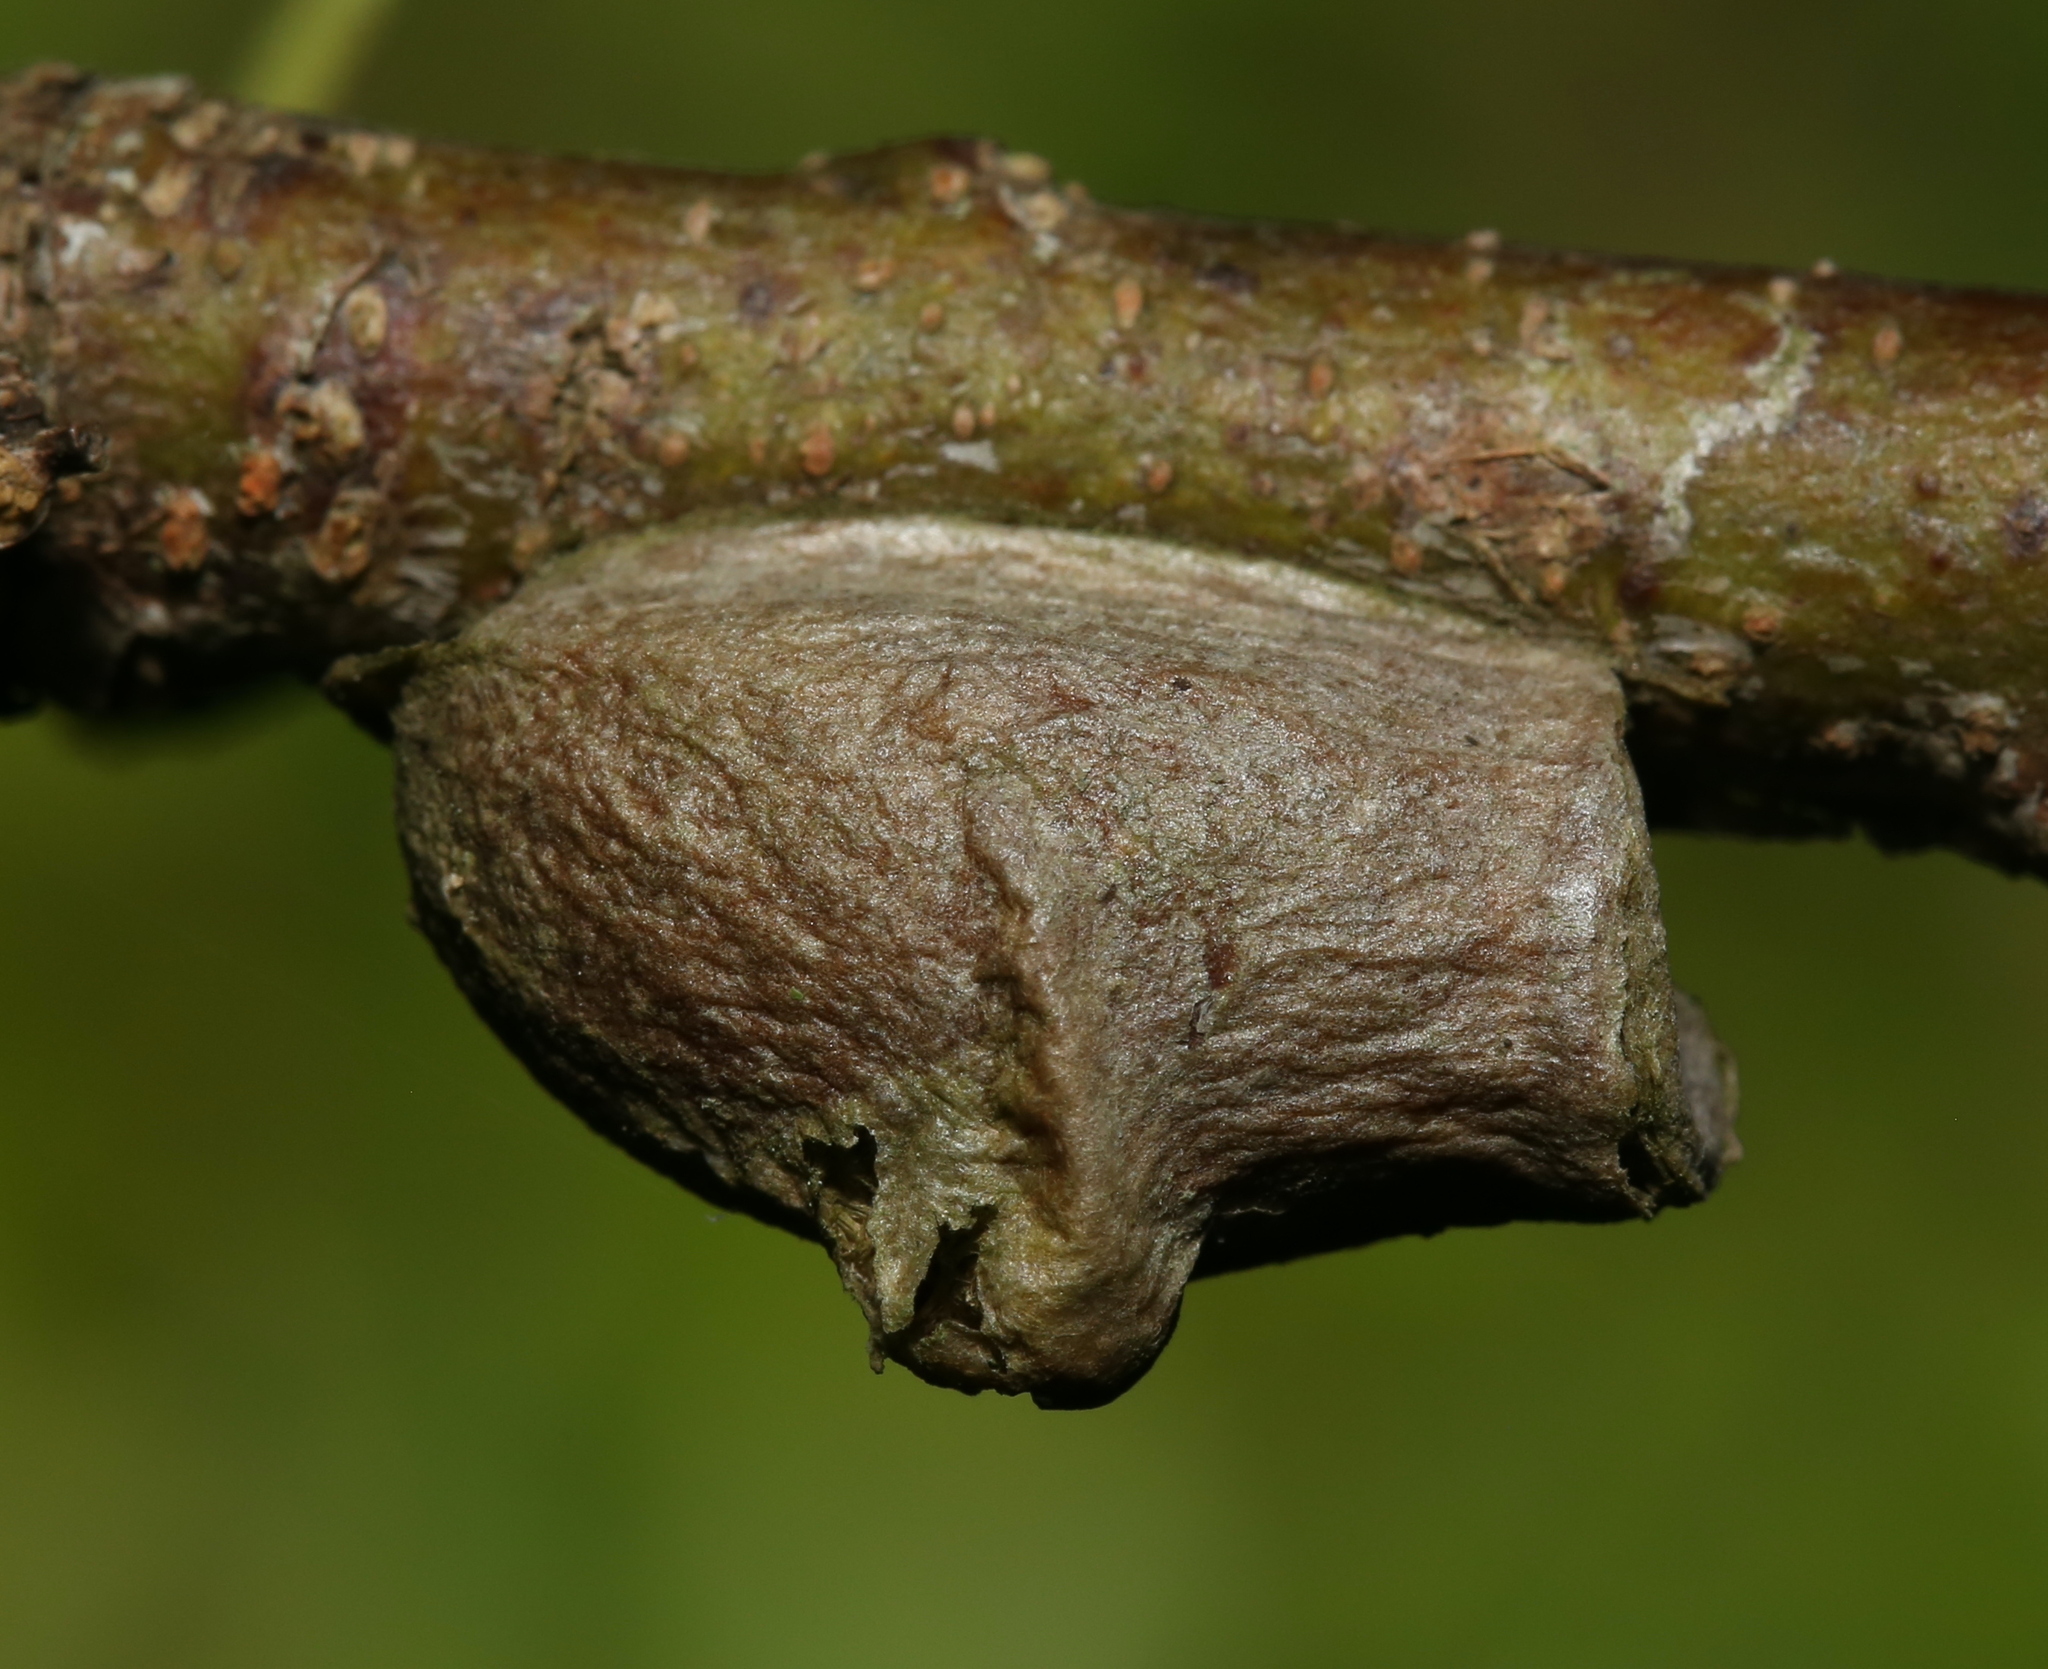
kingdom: Animalia
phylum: Arthropoda
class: Insecta
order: Lepidoptera
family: Megalopygidae
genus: Megalopyge
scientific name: Megalopyge
